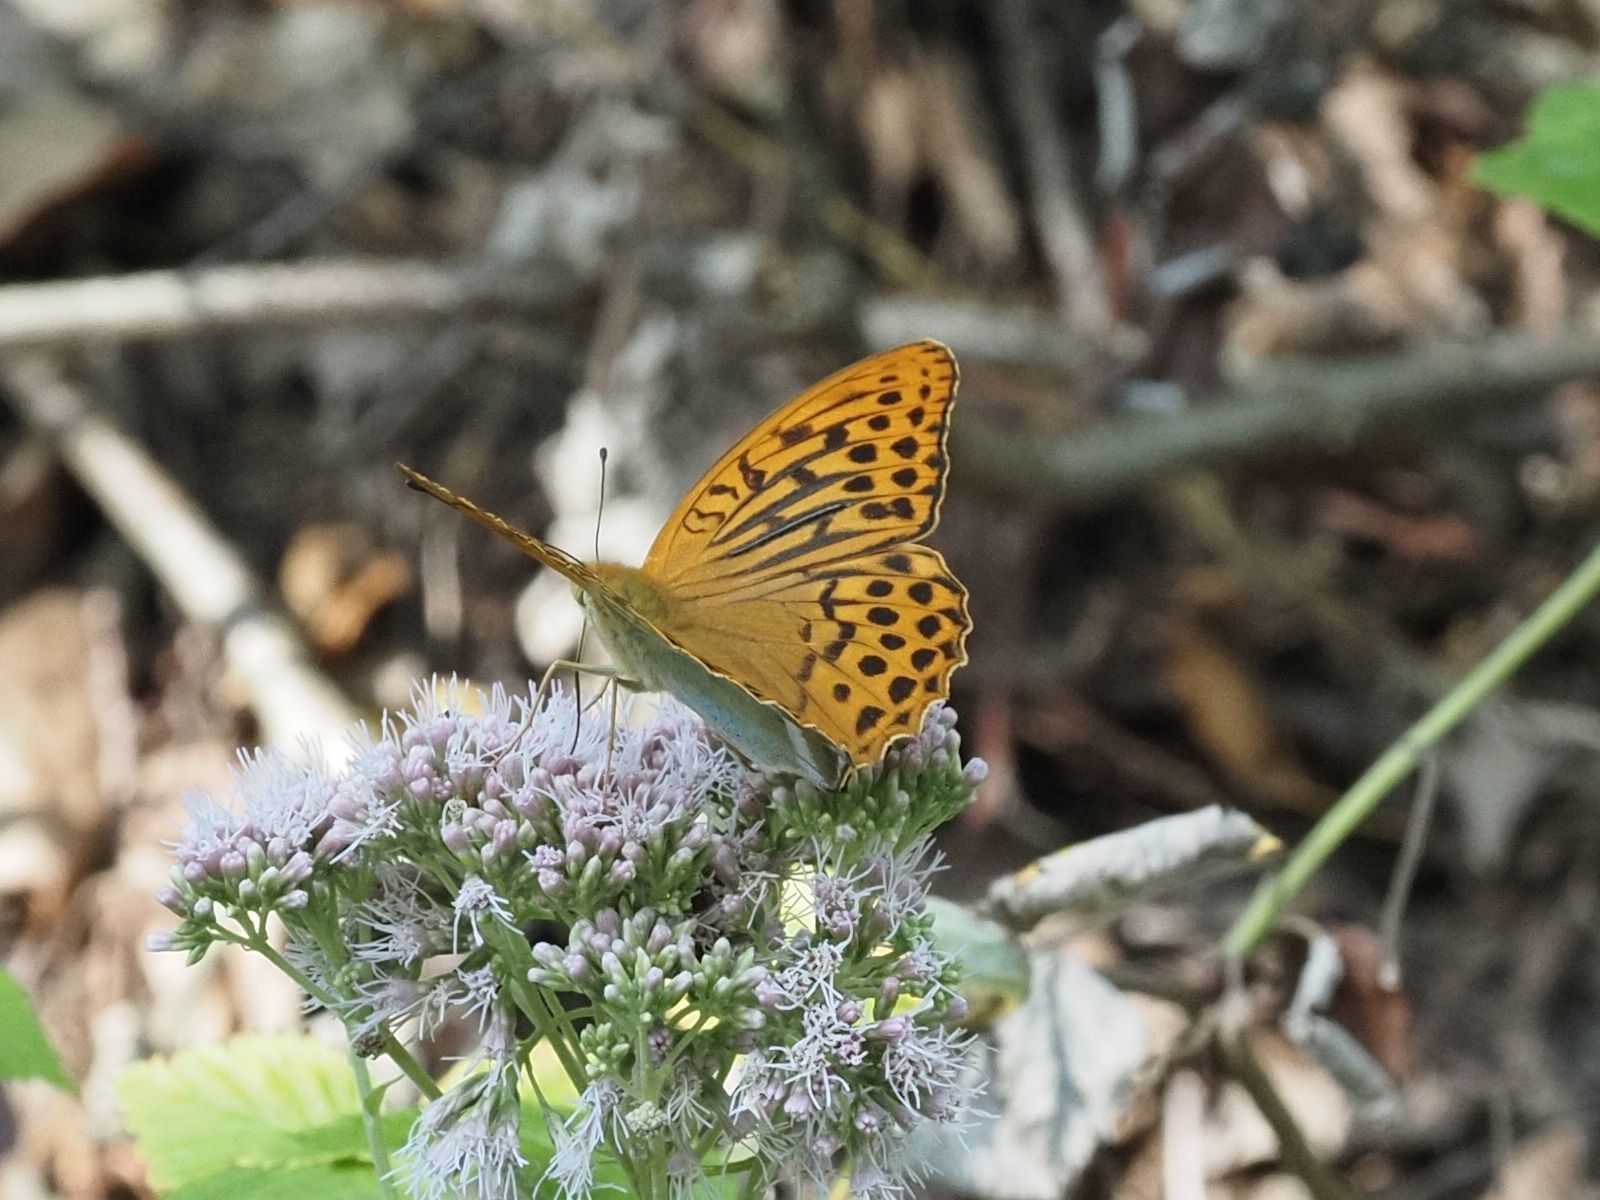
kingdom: Animalia
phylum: Arthropoda
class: Insecta
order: Lepidoptera
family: Nymphalidae
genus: Argynnis
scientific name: Argynnis paphia
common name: Silver-washed fritillary
